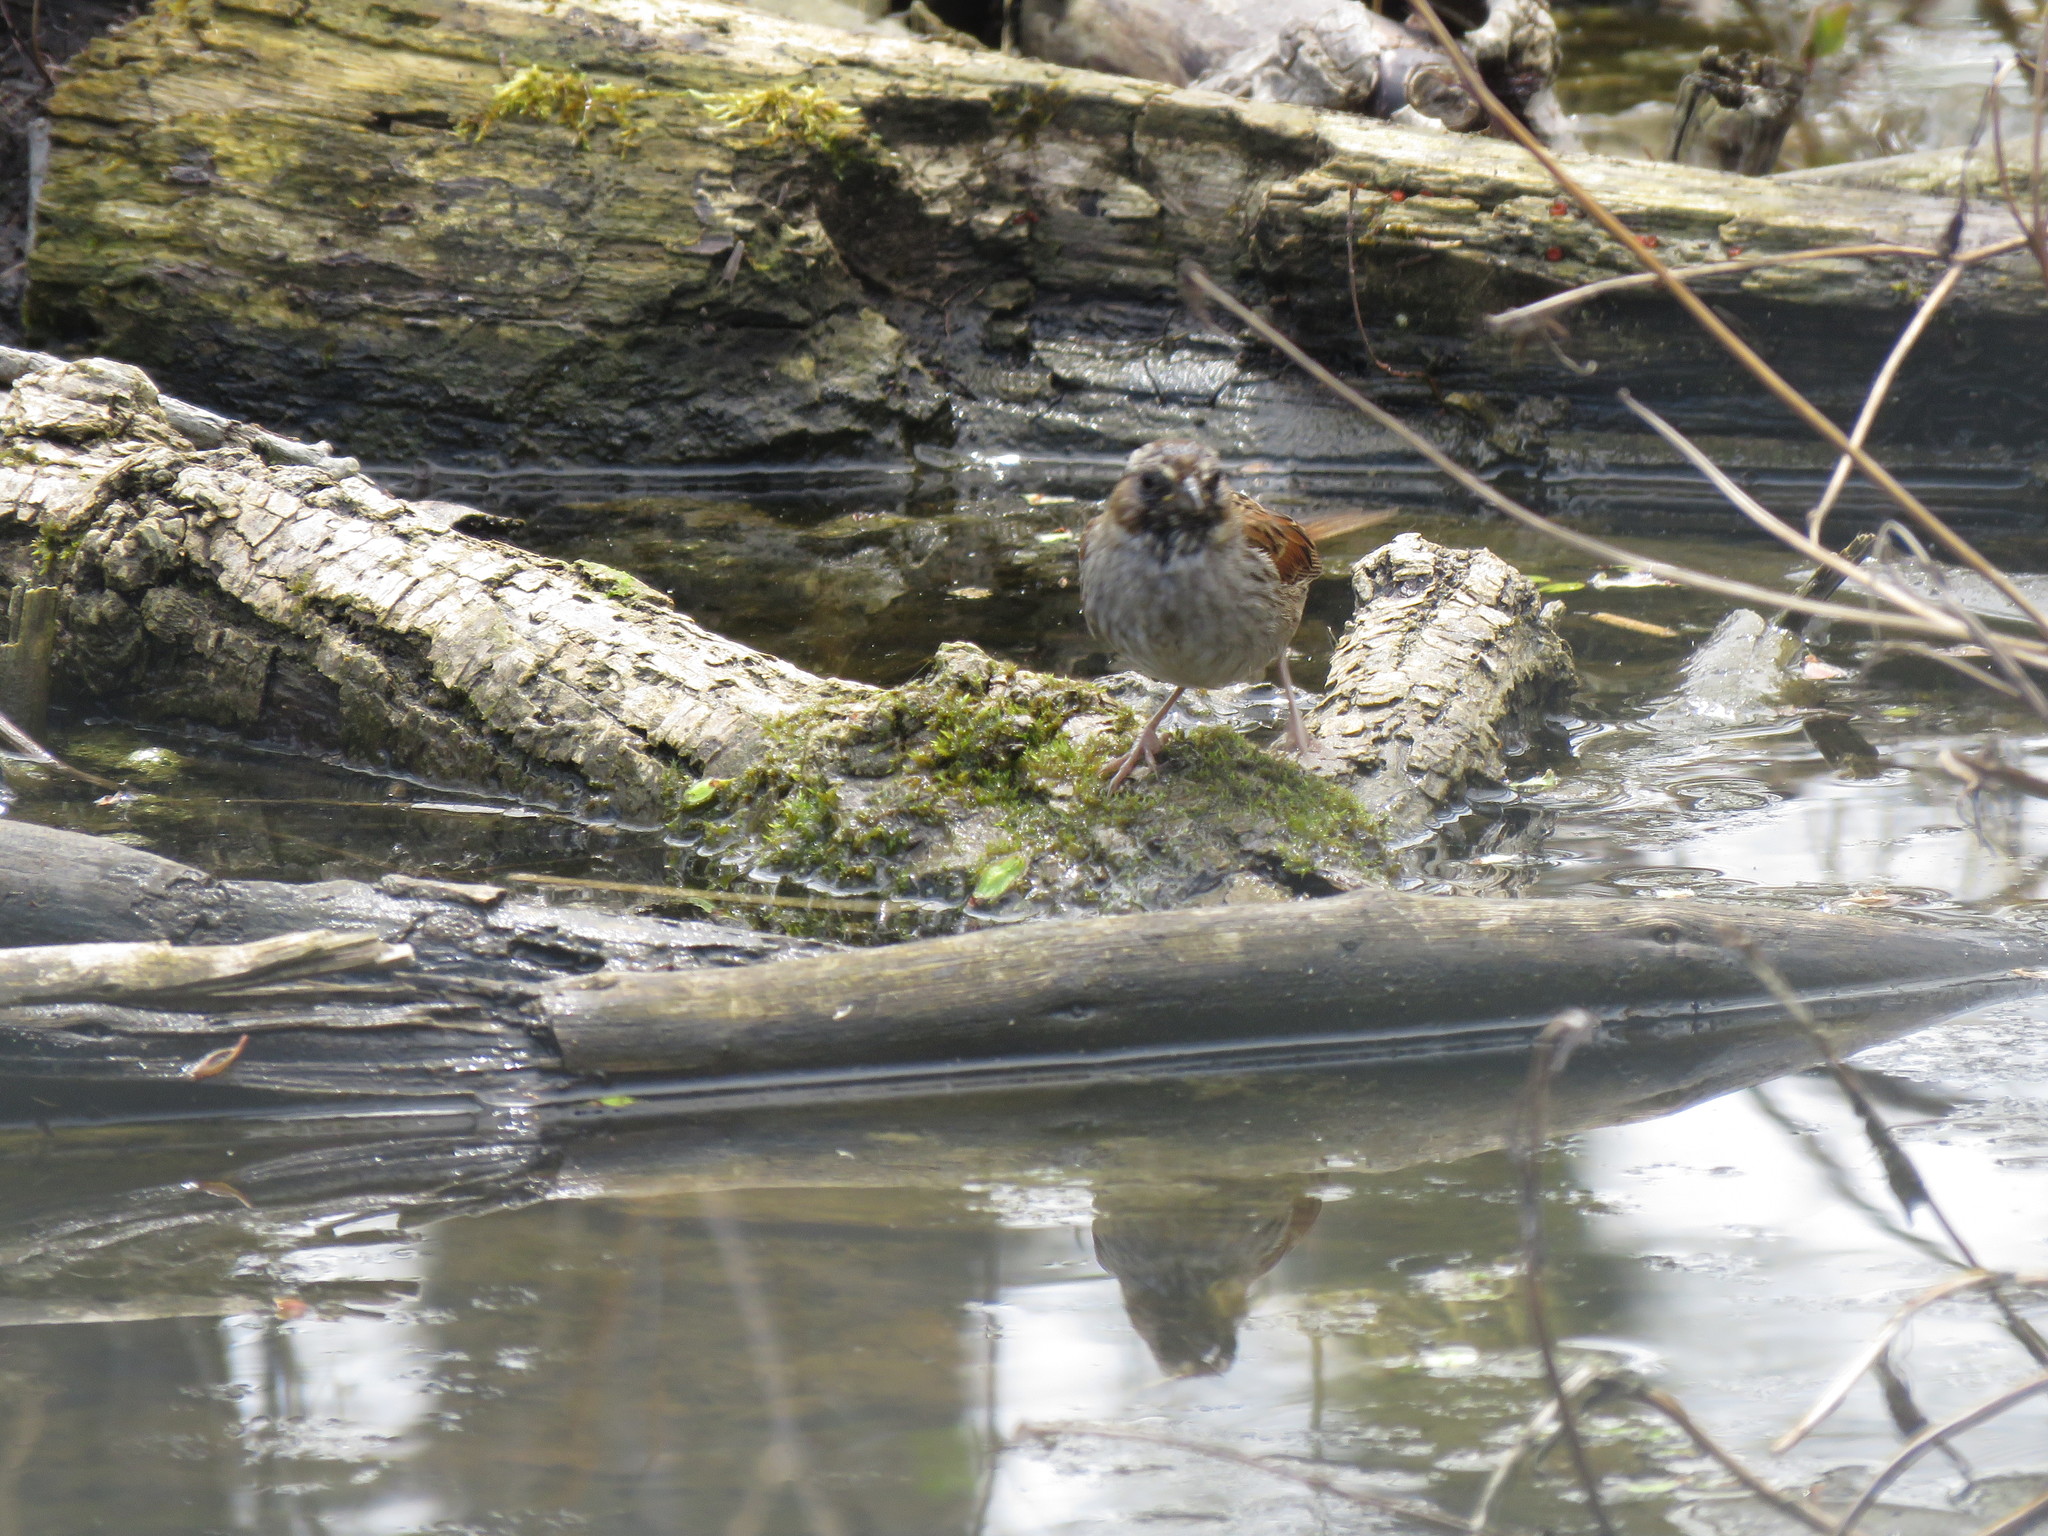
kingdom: Animalia
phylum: Chordata
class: Aves
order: Passeriformes
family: Passerellidae
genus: Melospiza
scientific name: Melospiza georgiana
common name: Swamp sparrow
